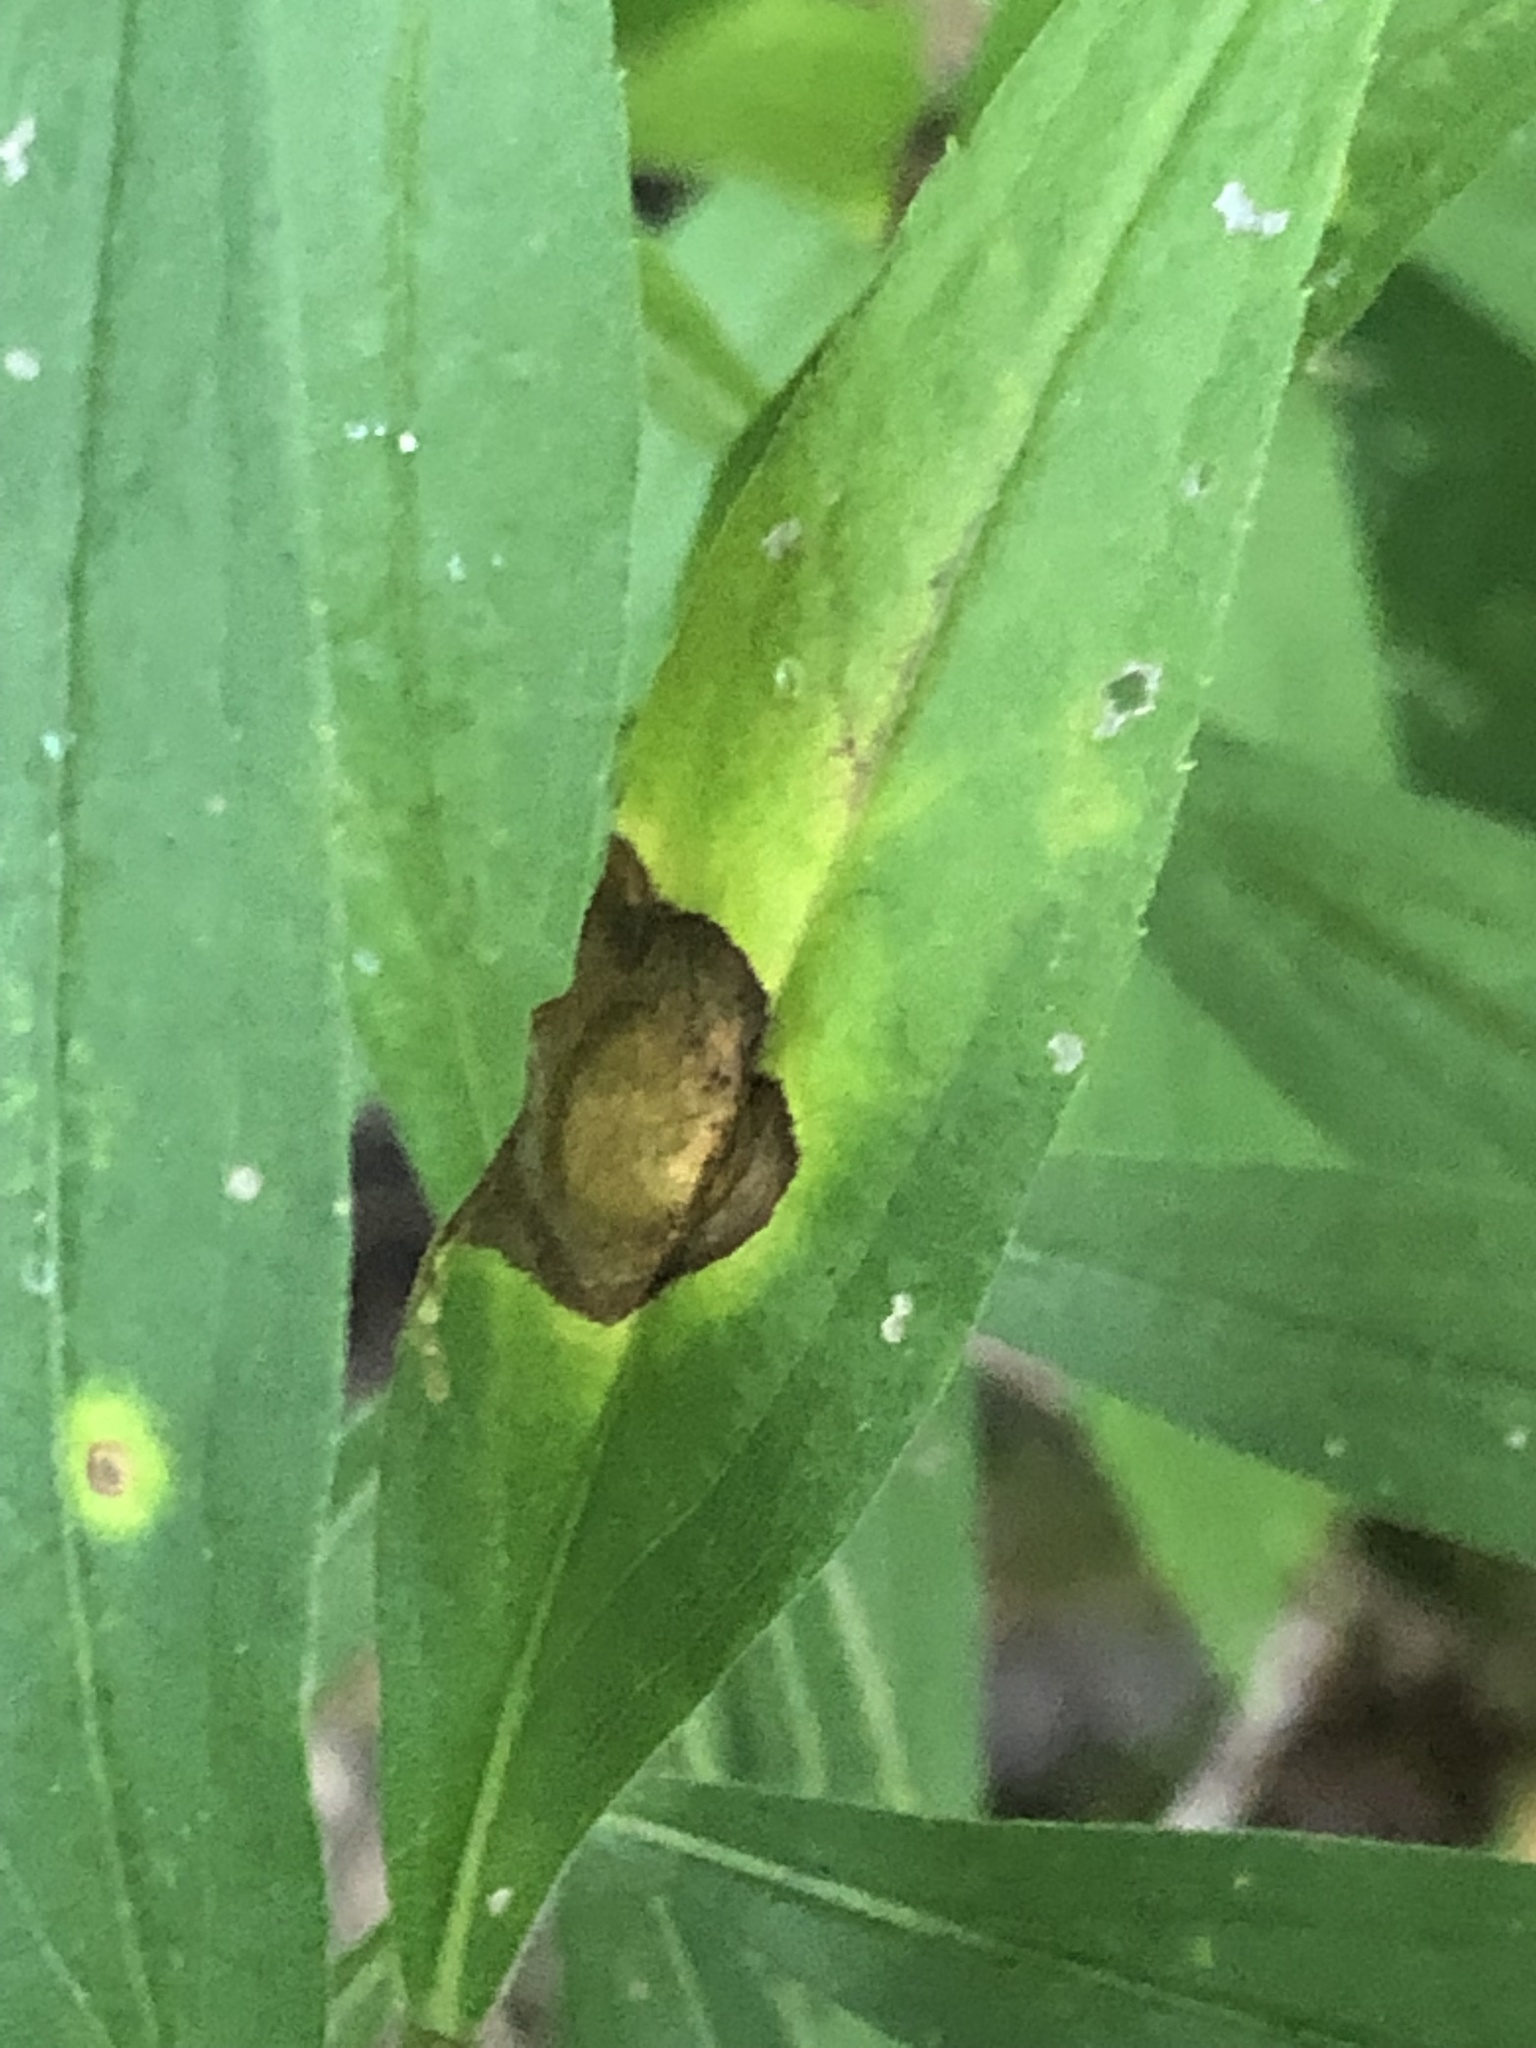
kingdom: Animalia
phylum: Arthropoda
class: Insecta
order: Diptera
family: Cecidomyiidae
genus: Asteromyia
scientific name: Asteromyia carbonifera
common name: Carbonifera goldenrod gall midge
